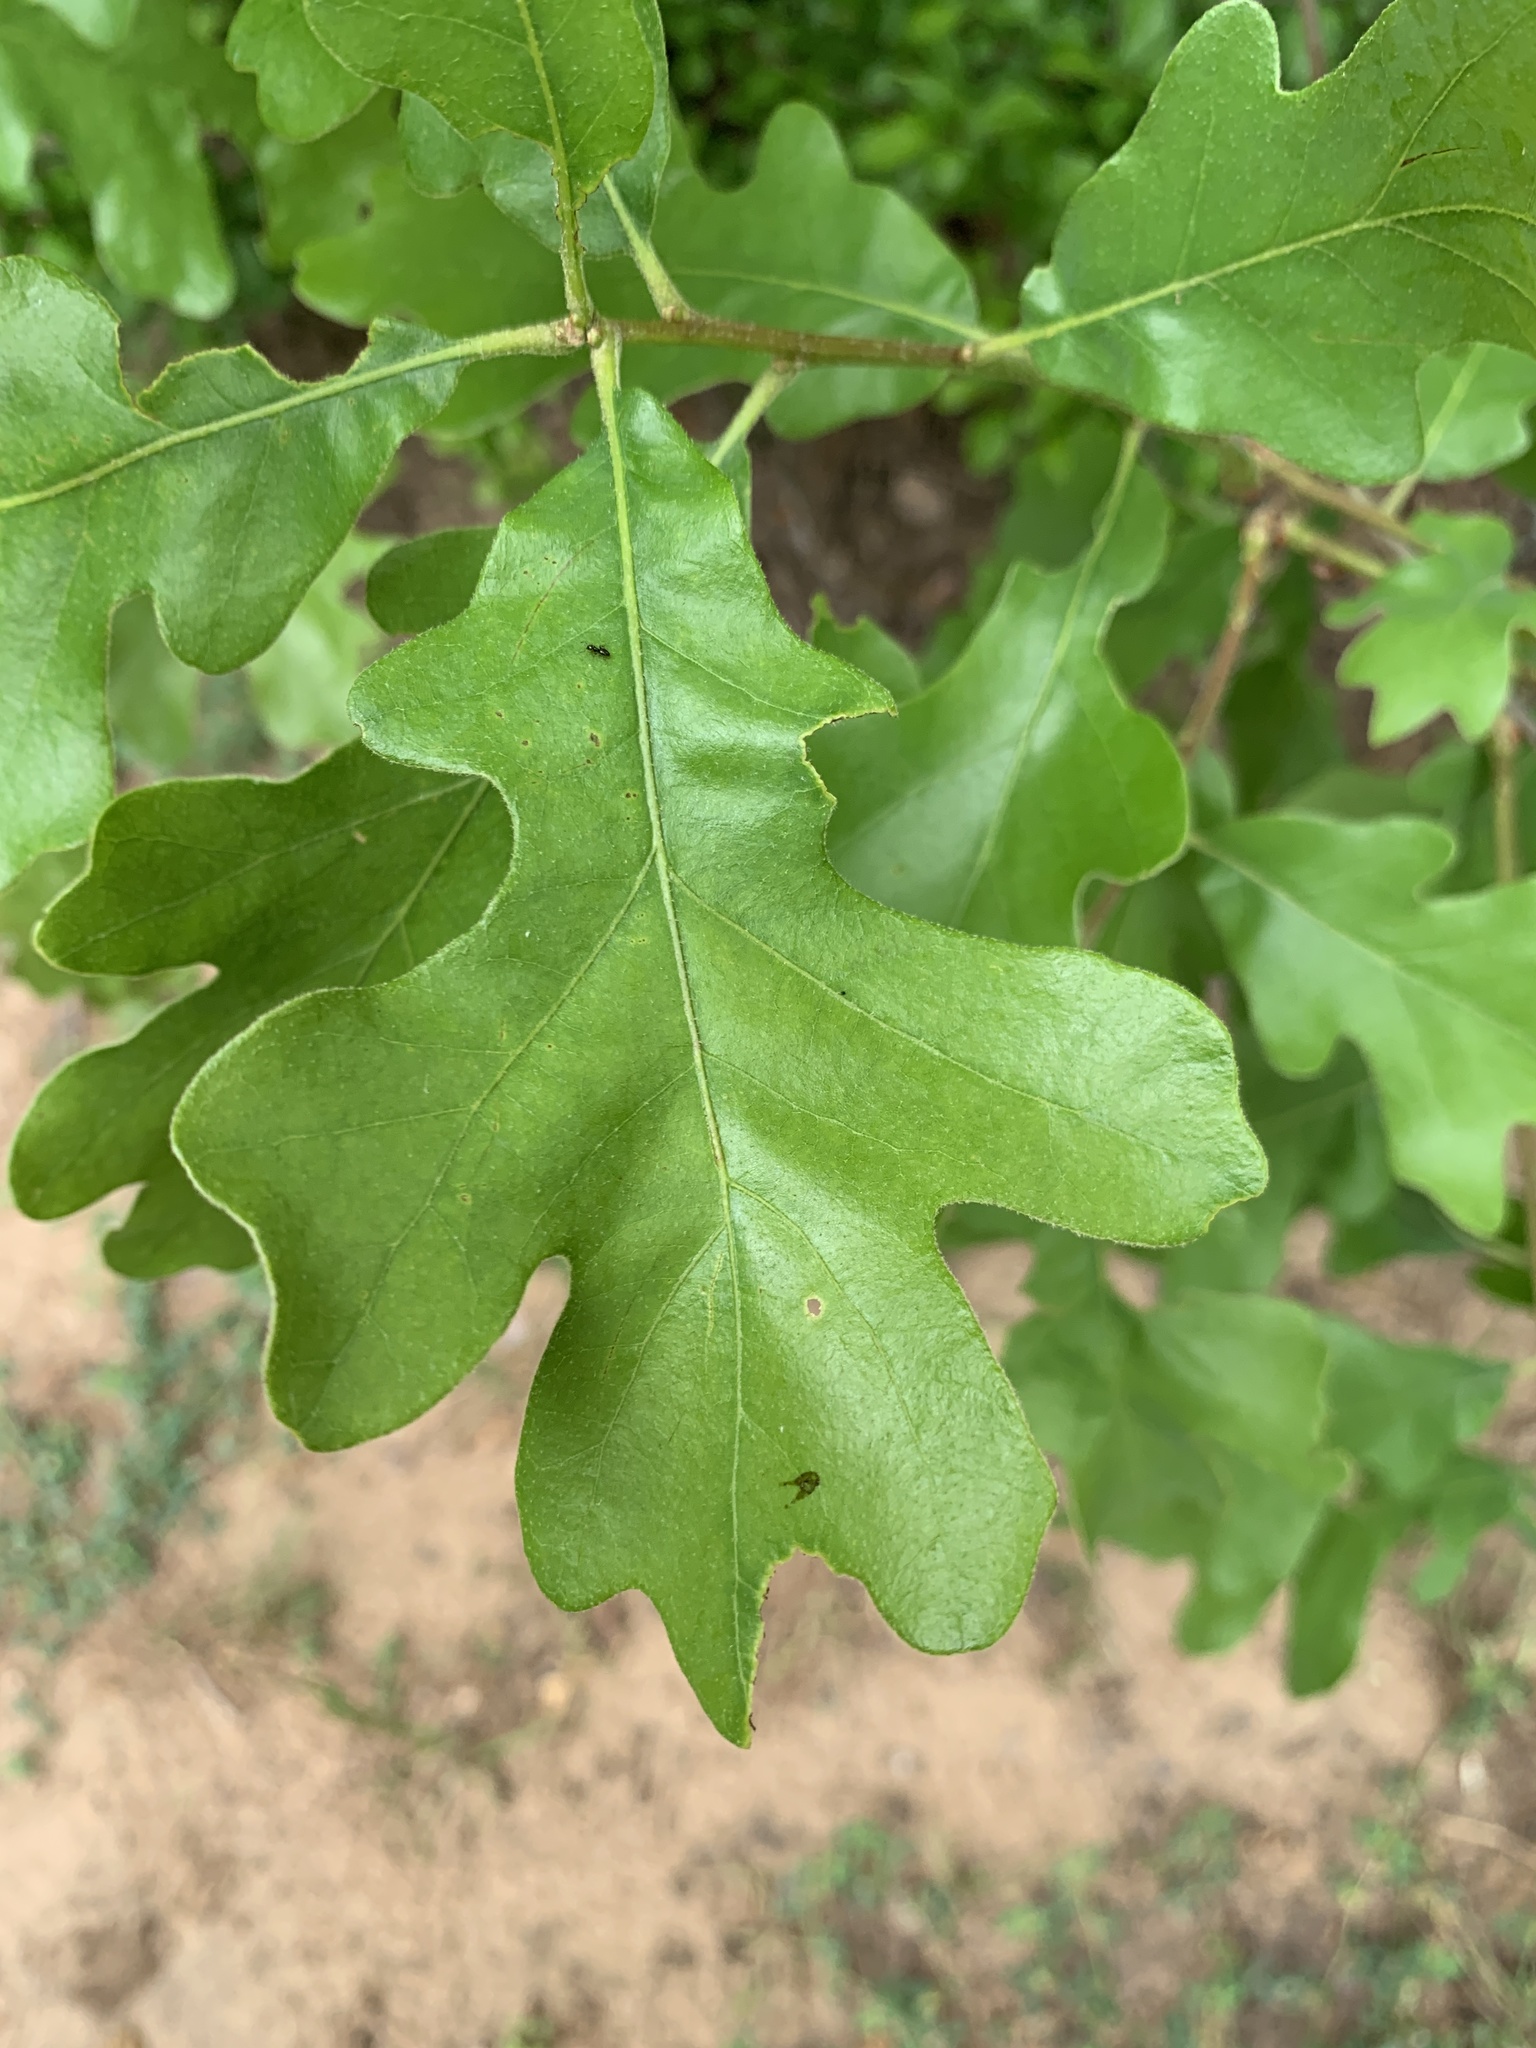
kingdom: Plantae
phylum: Tracheophyta
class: Magnoliopsida
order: Fagales
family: Fagaceae
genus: Quercus
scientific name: Quercus stellata
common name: Post oak
